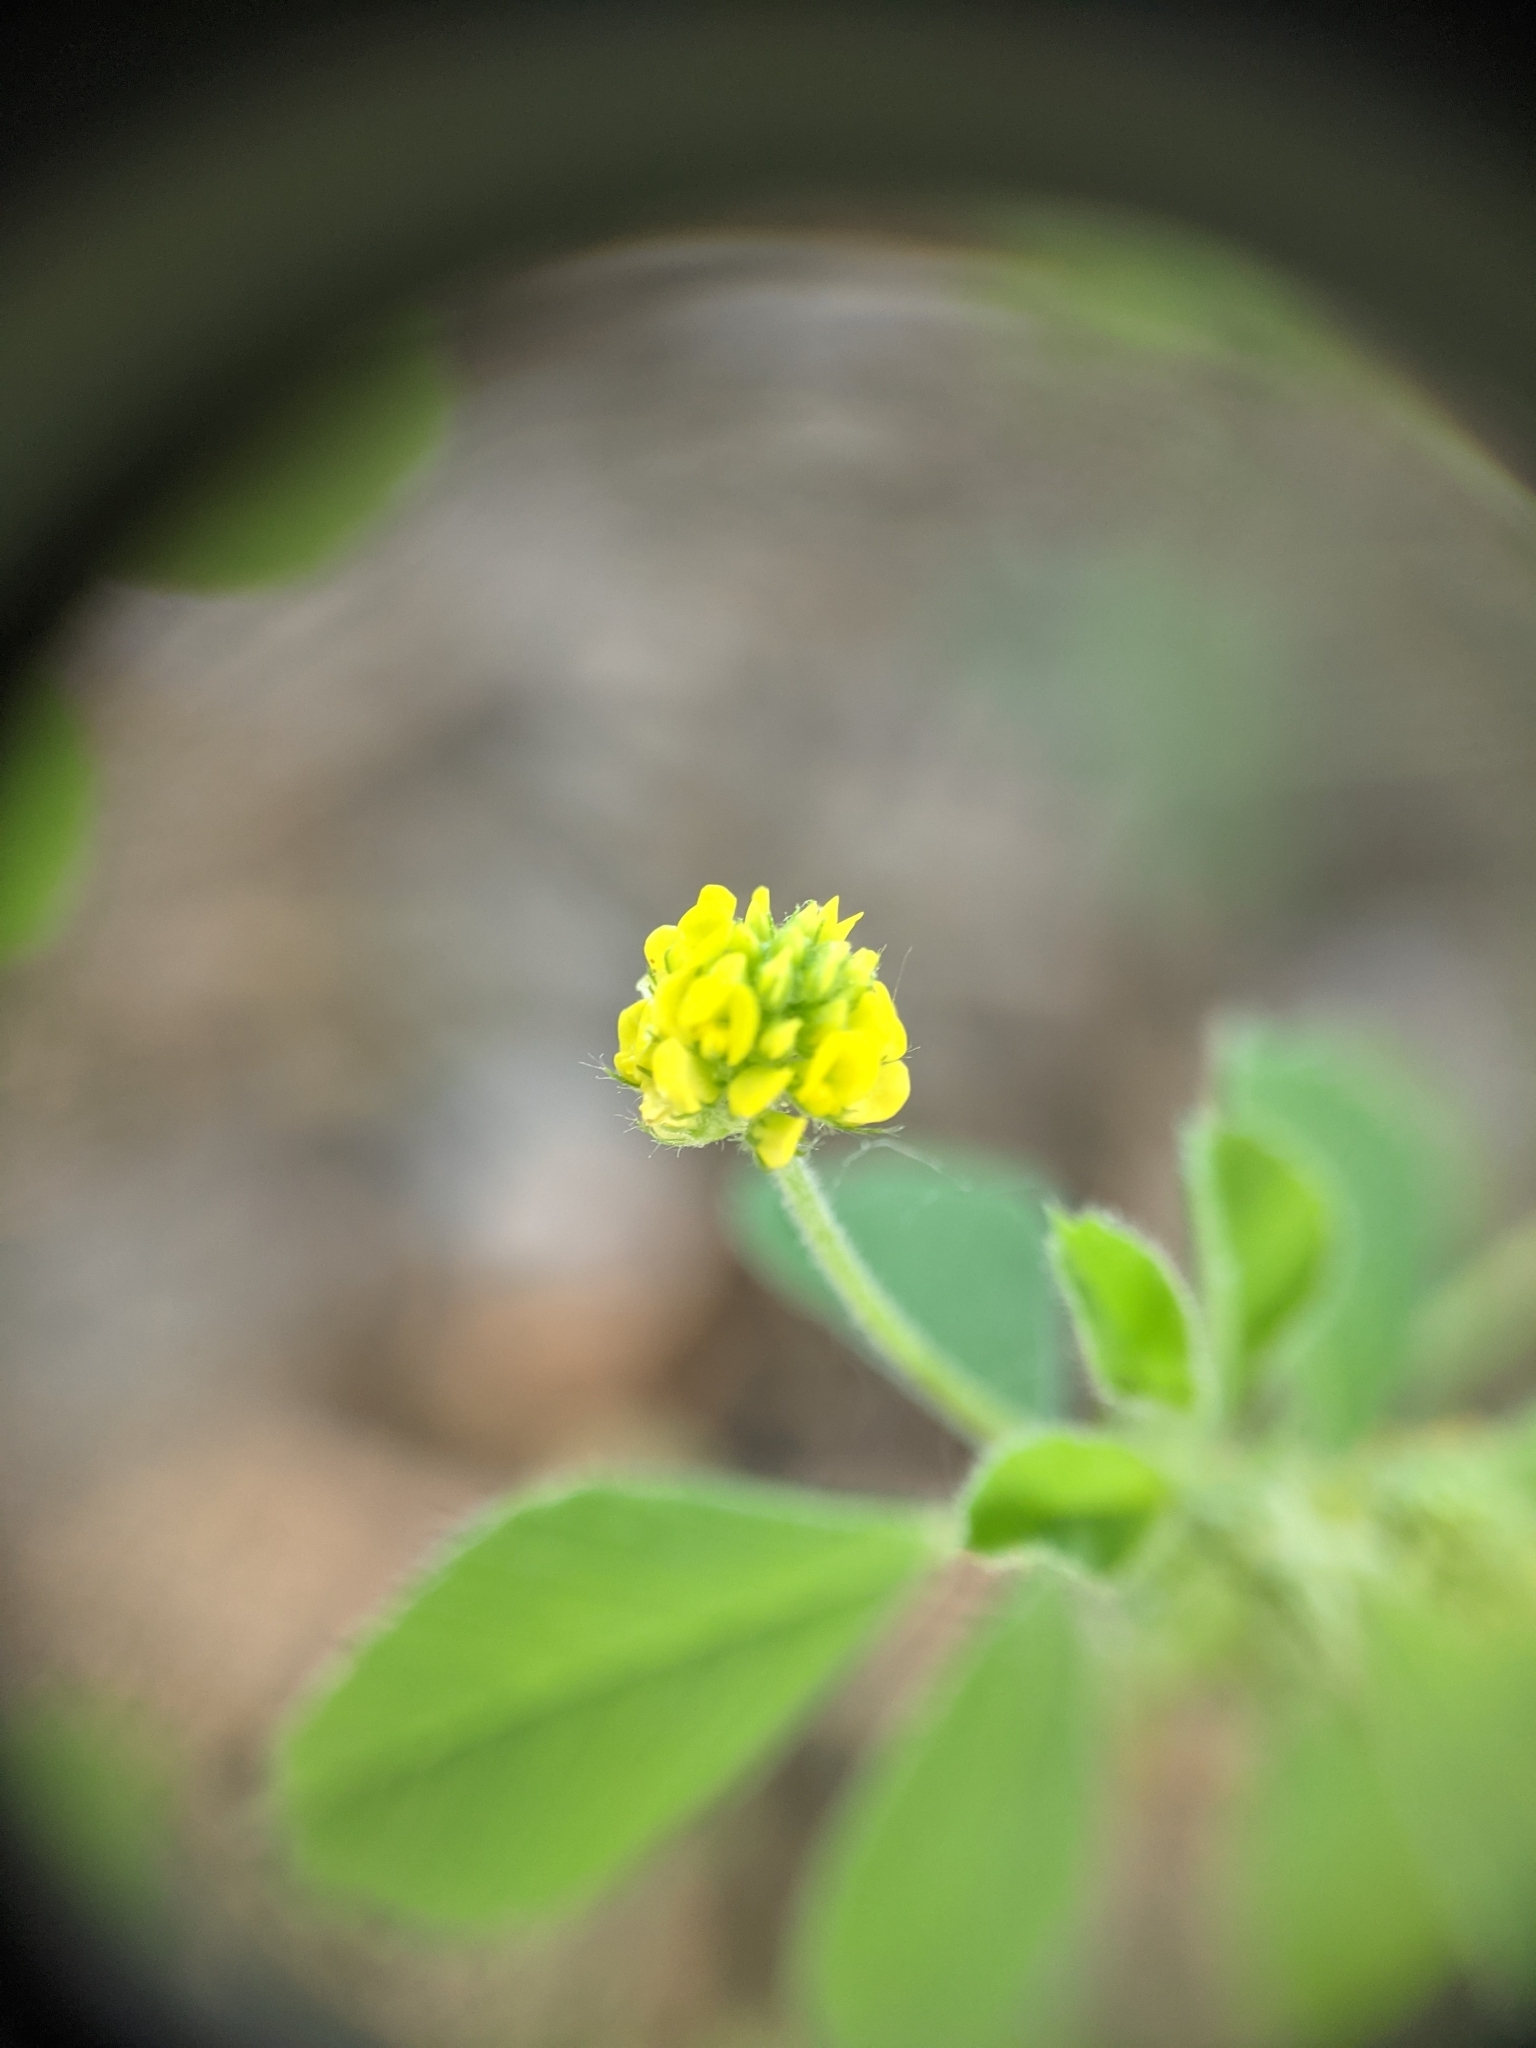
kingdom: Plantae
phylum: Tracheophyta
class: Magnoliopsida
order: Fabales
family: Fabaceae
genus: Medicago
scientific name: Medicago lupulina
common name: Black medick
